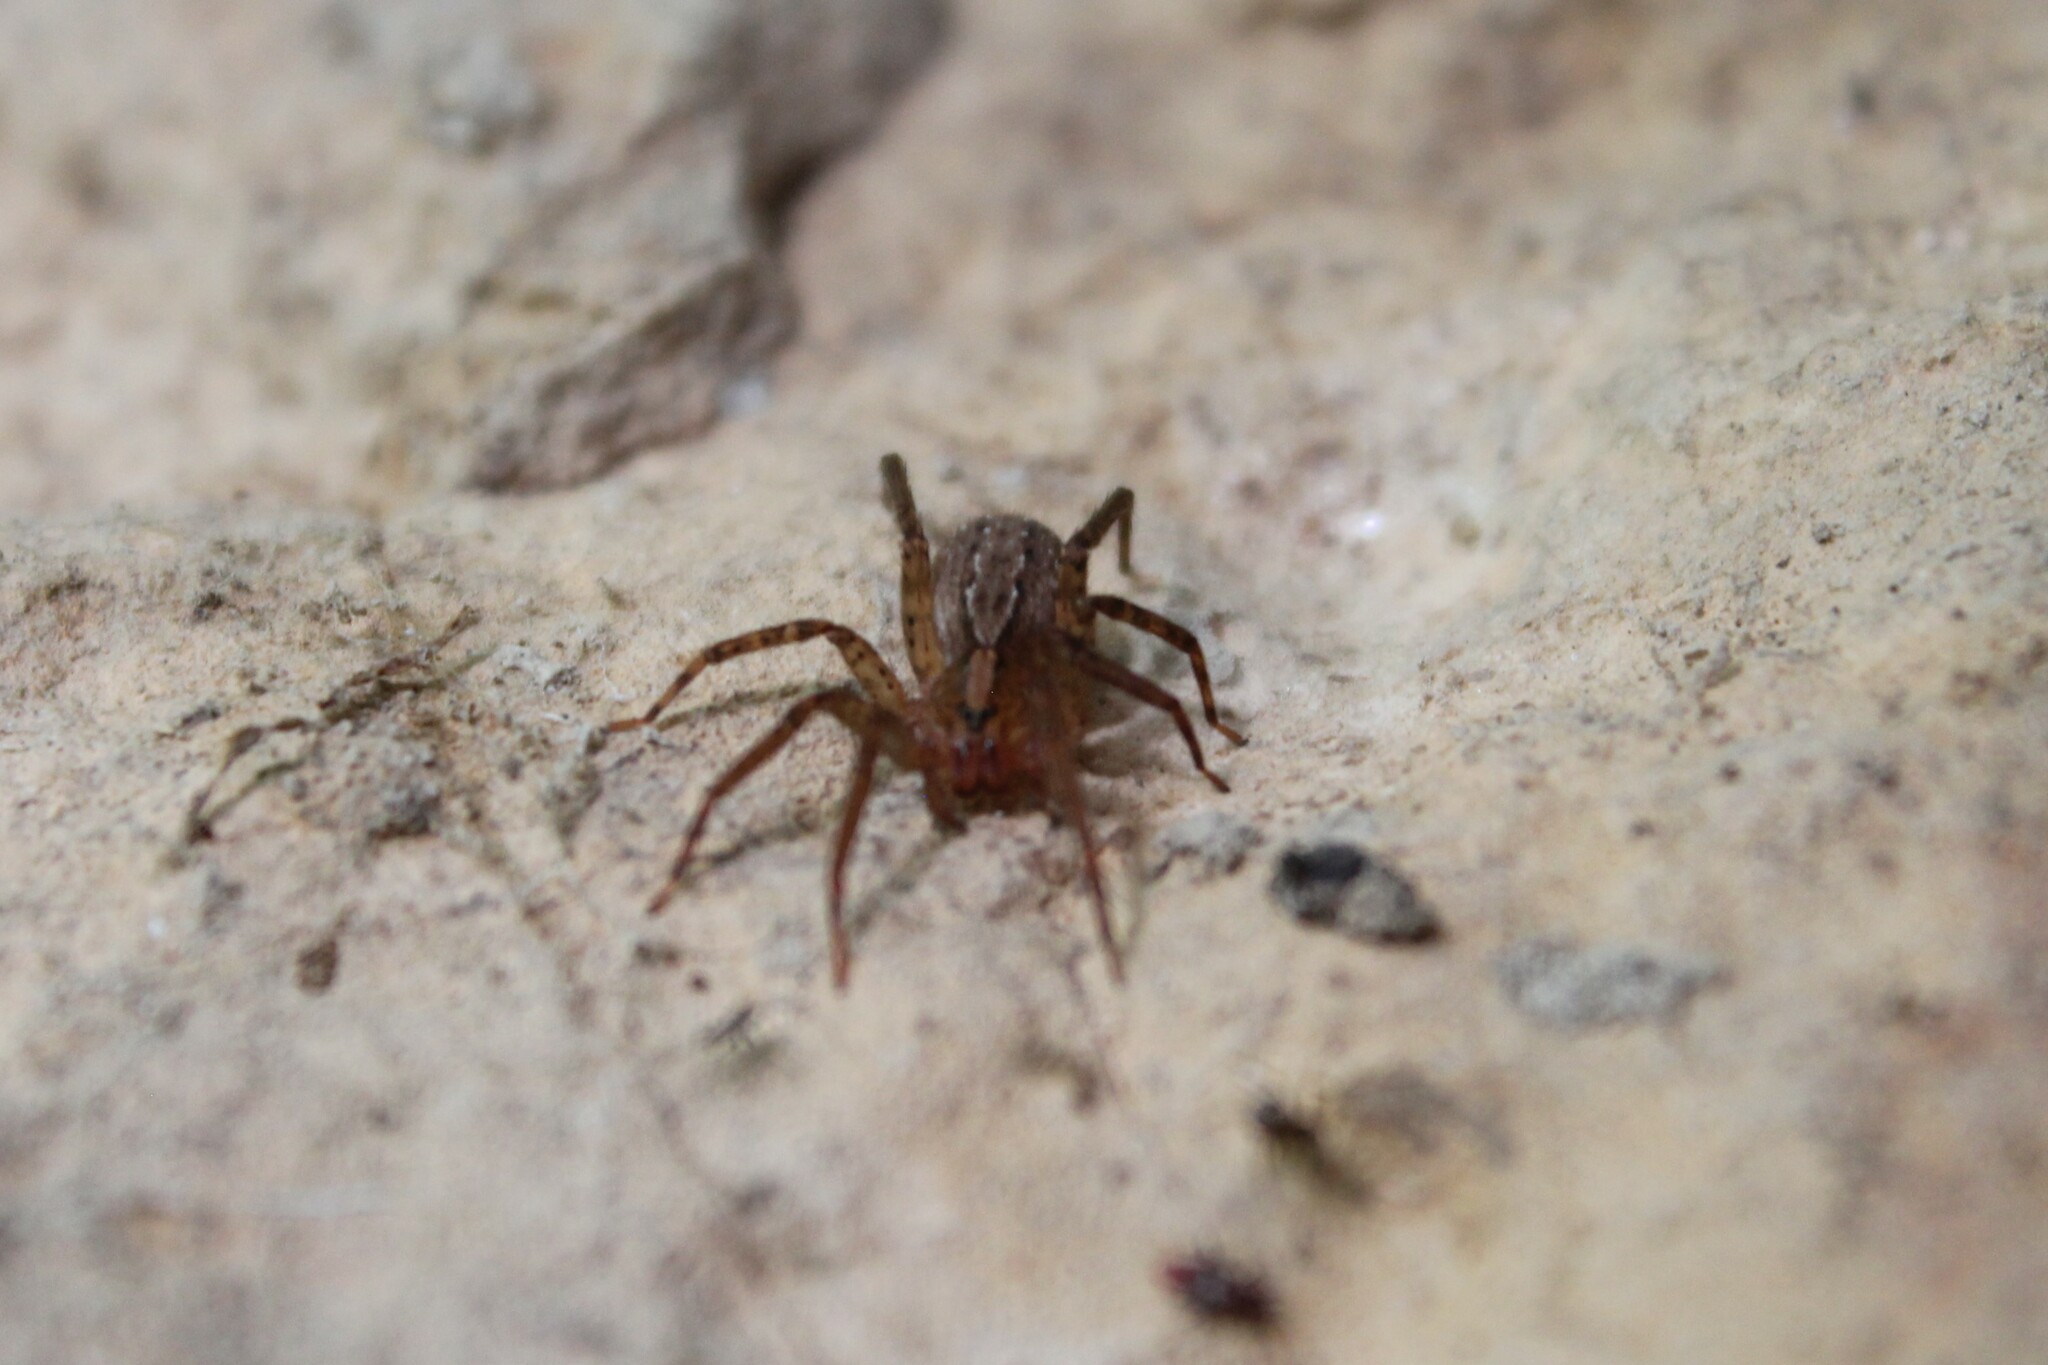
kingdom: Animalia
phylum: Arthropoda
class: Arachnida
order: Araneae
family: Ctenidae
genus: Anahita
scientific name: Anahita punctulata
